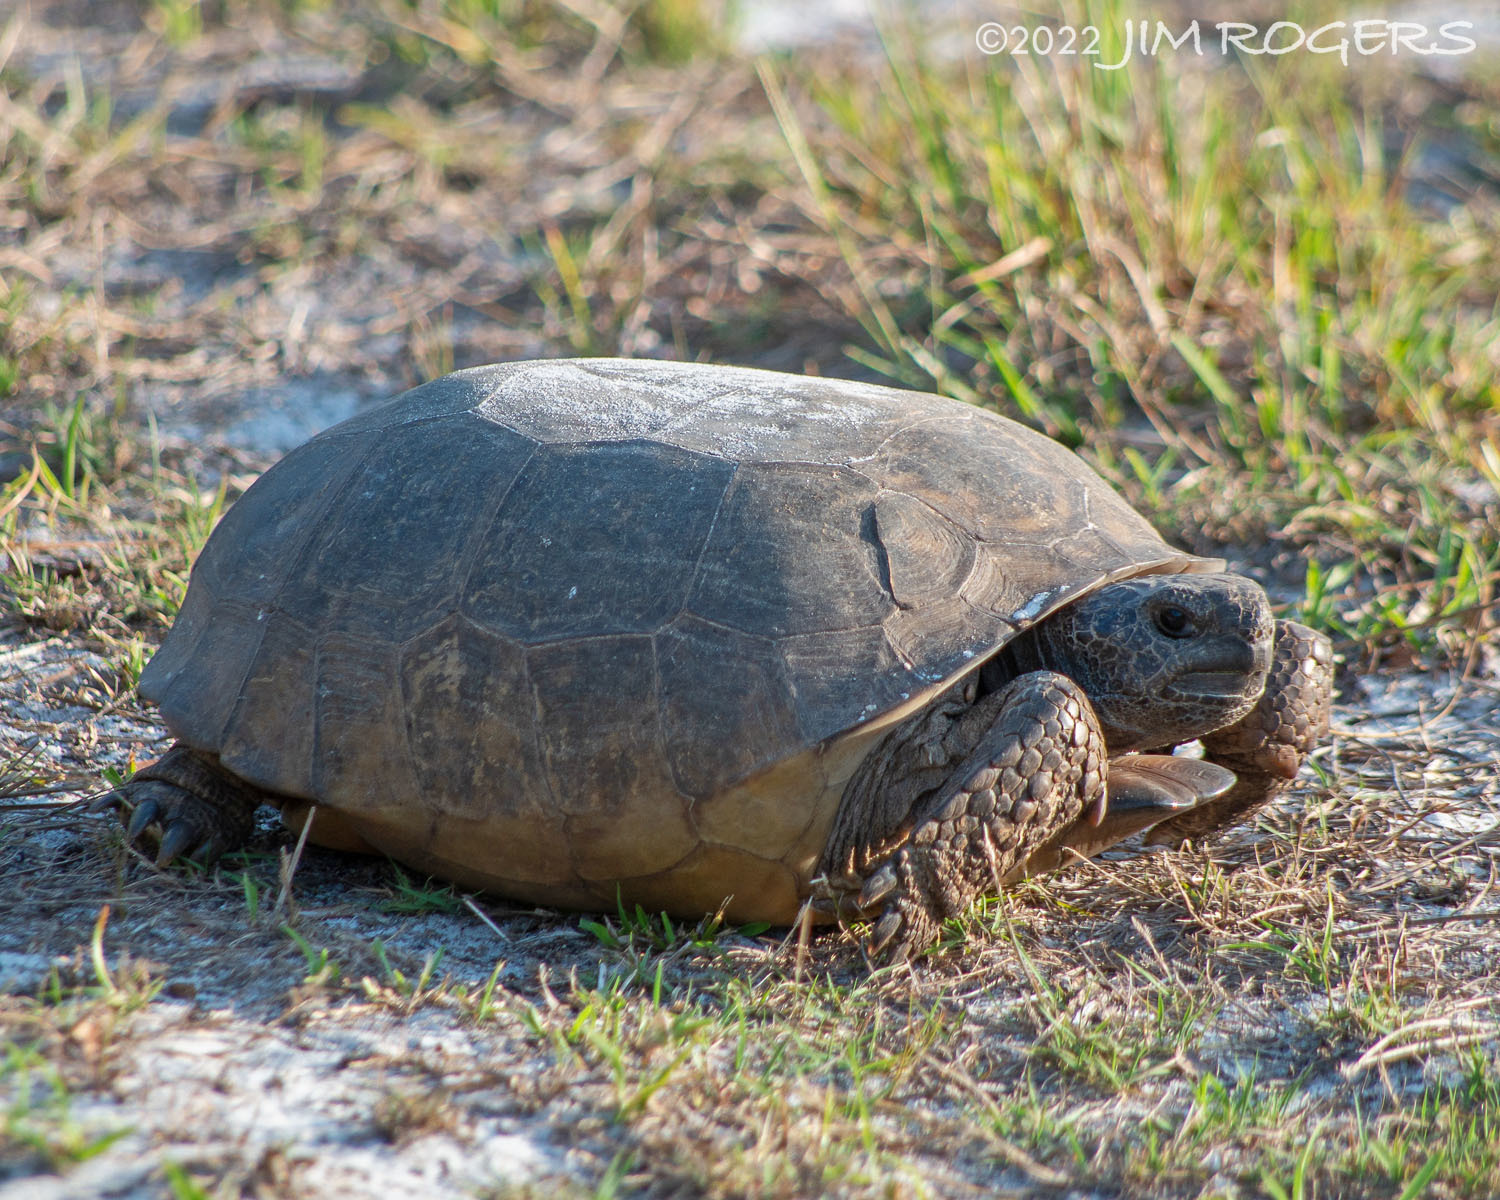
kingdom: Animalia
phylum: Chordata
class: Testudines
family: Testudinidae
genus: Gopherus
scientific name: Gopherus polyphemus
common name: Florida gopher tortoise
